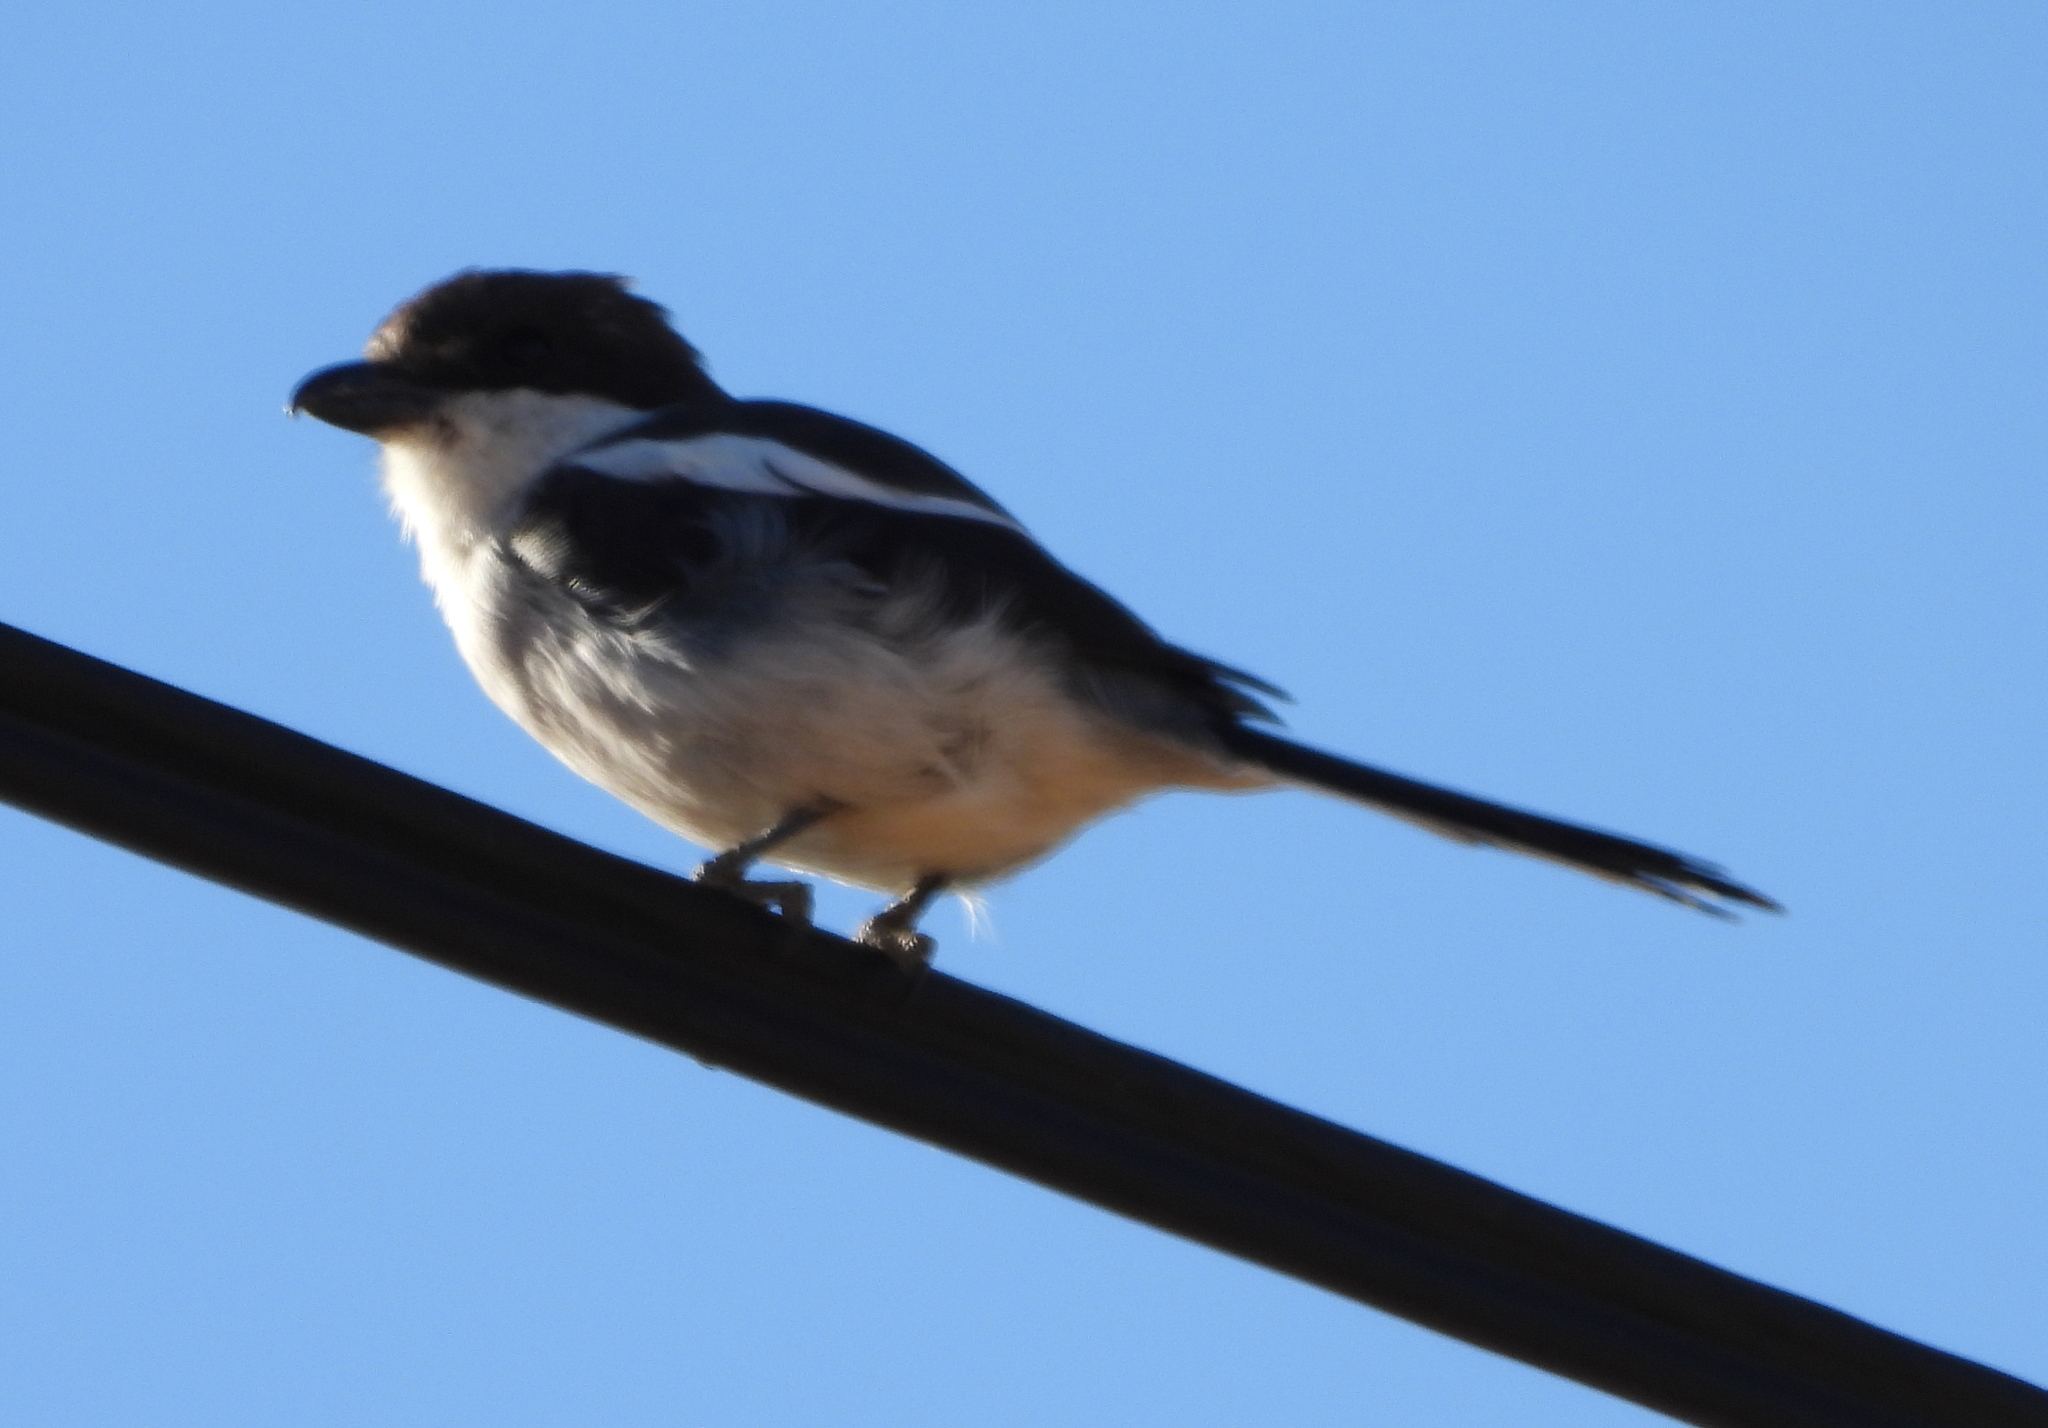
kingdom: Animalia
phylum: Chordata
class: Aves
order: Passeriformes
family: Laniidae
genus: Lanius
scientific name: Lanius collaris
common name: Southern fiscal
